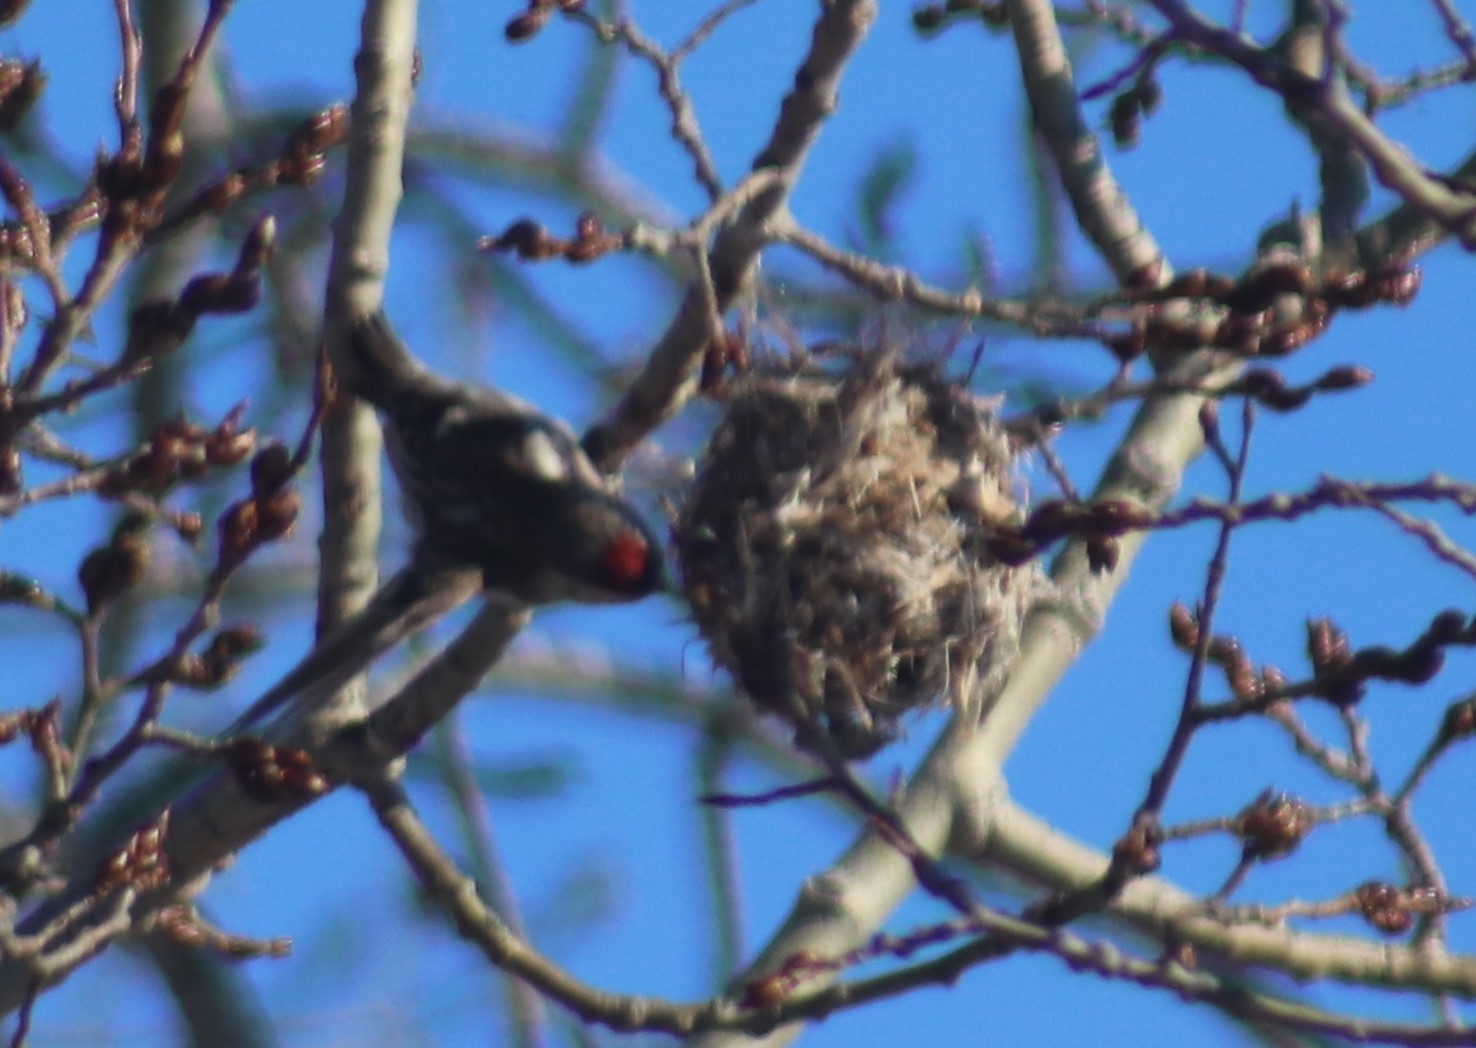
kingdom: Animalia
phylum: Chordata
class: Aves
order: Passeriformes
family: Fringillidae
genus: Acanthis
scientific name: Acanthis flammea
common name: Common redpoll
